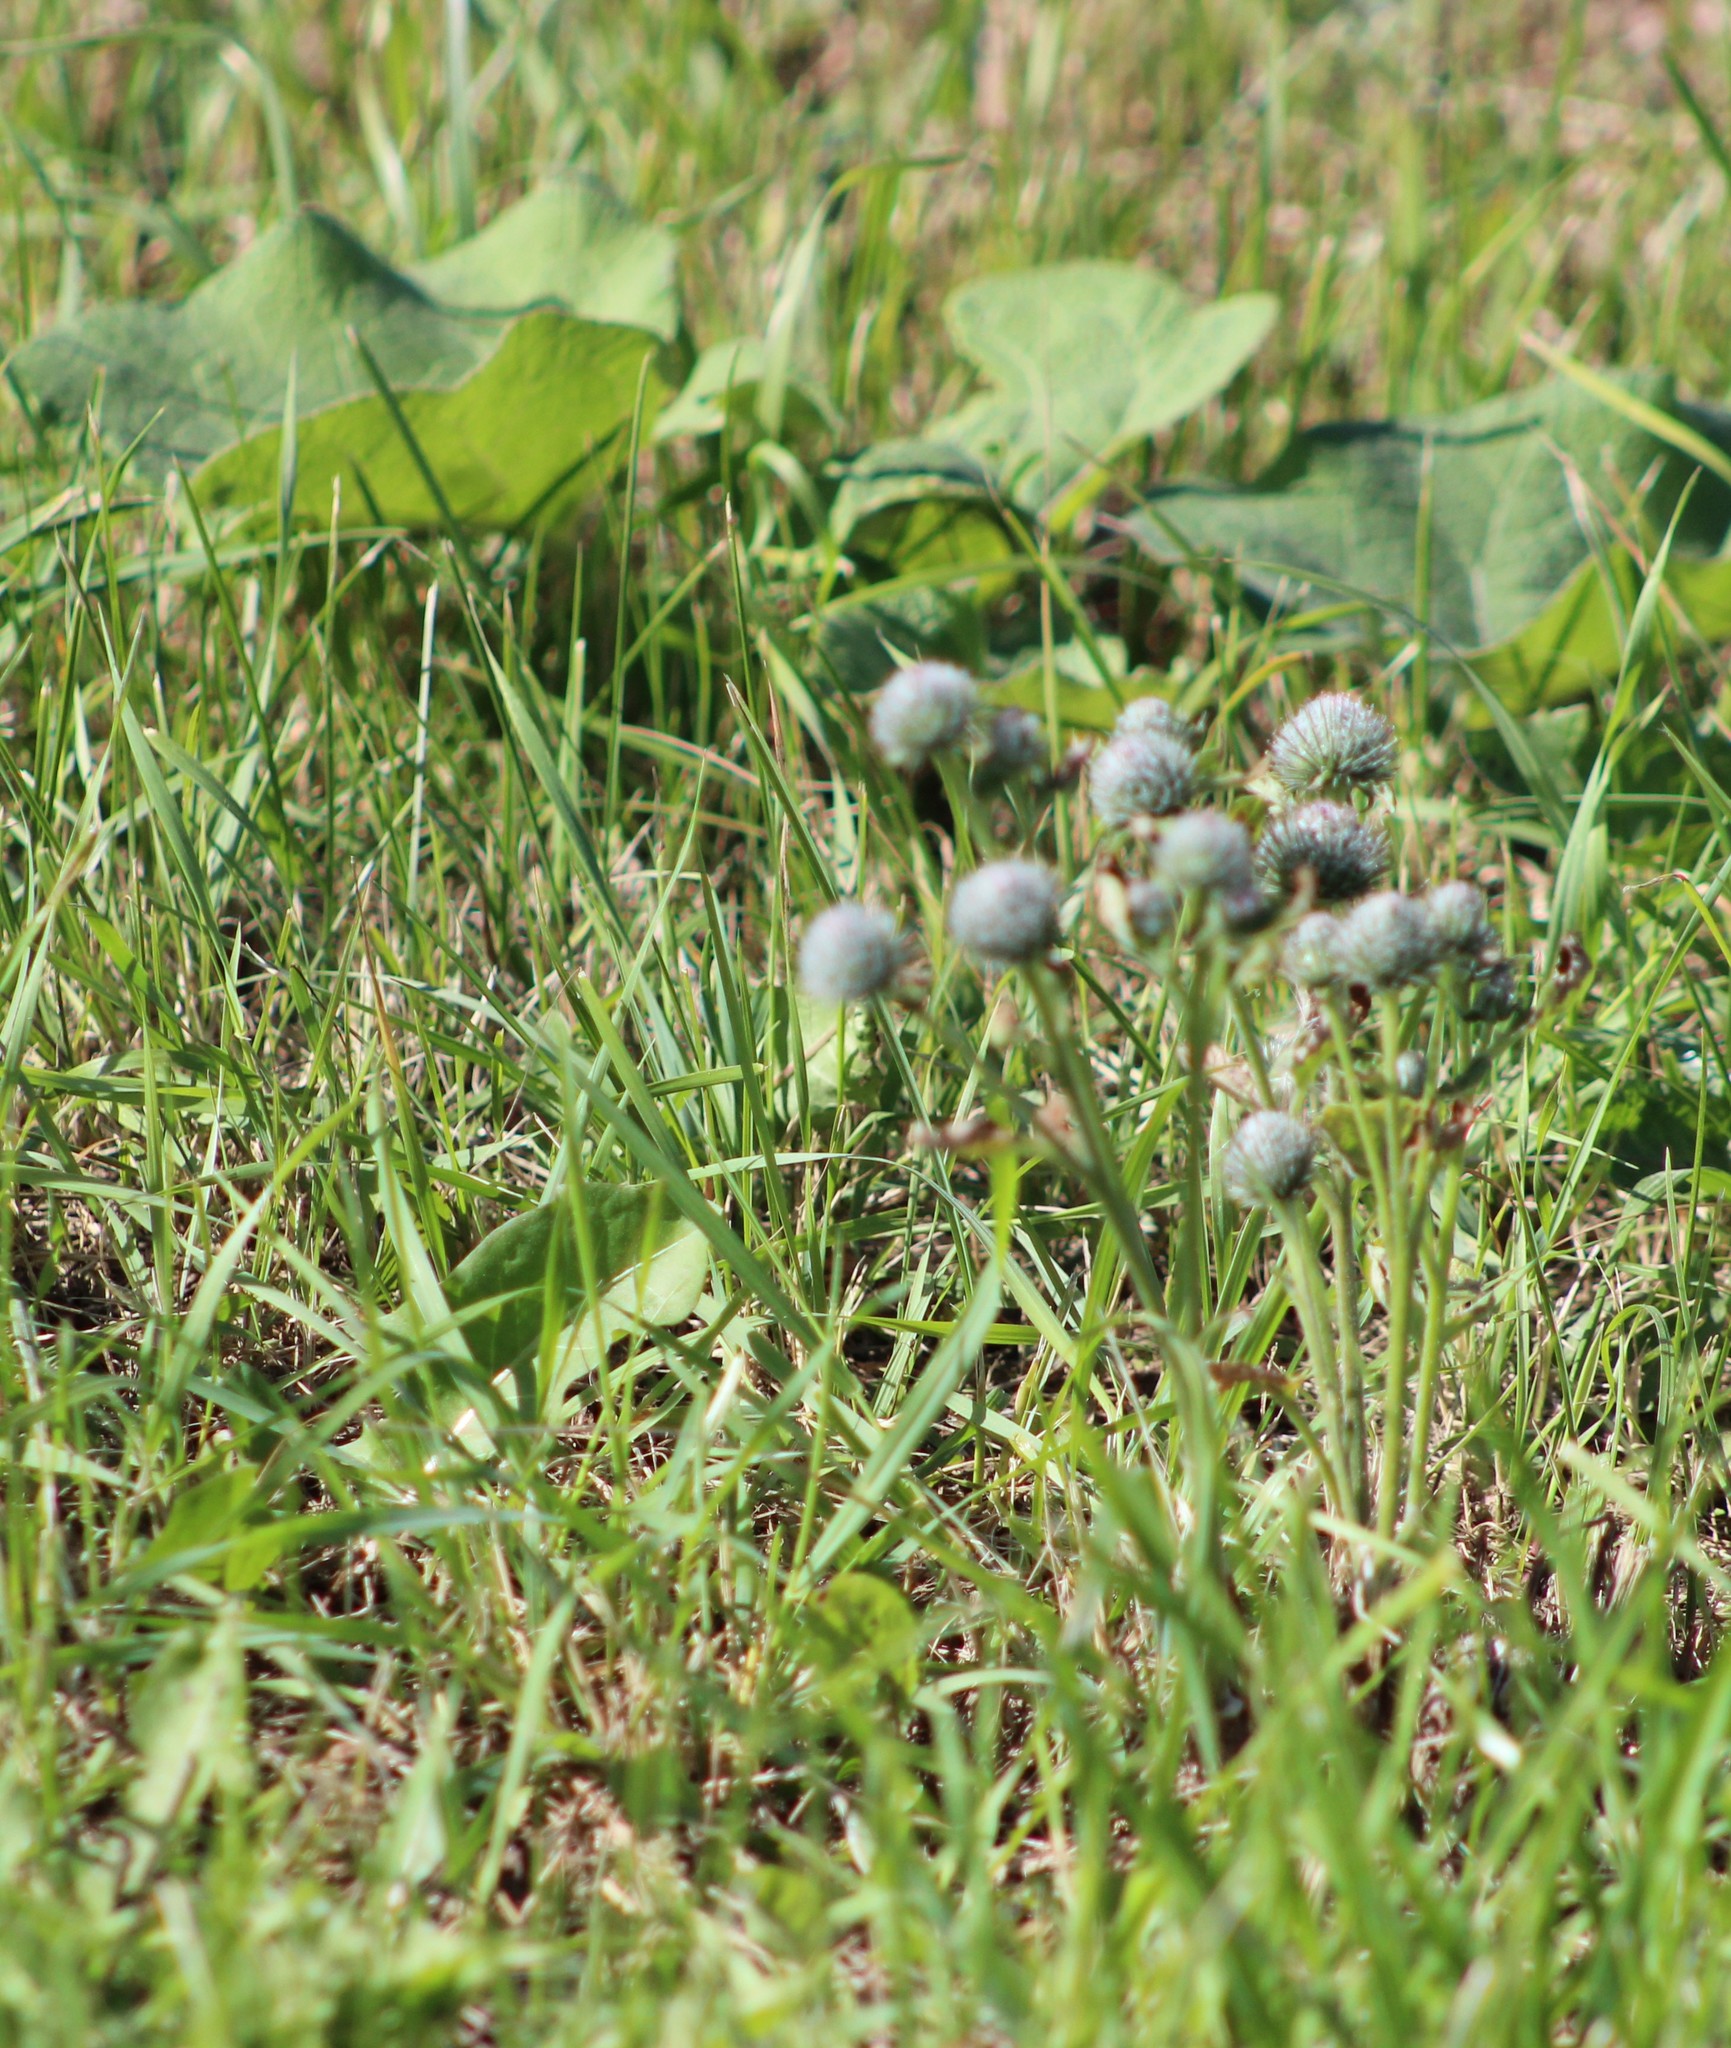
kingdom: Plantae
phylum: Tracheophyta
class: Magnoliopsida
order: Asterales
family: Asteraceae
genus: Arctium
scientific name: Arctium tomentosum
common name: Woolly burdock
